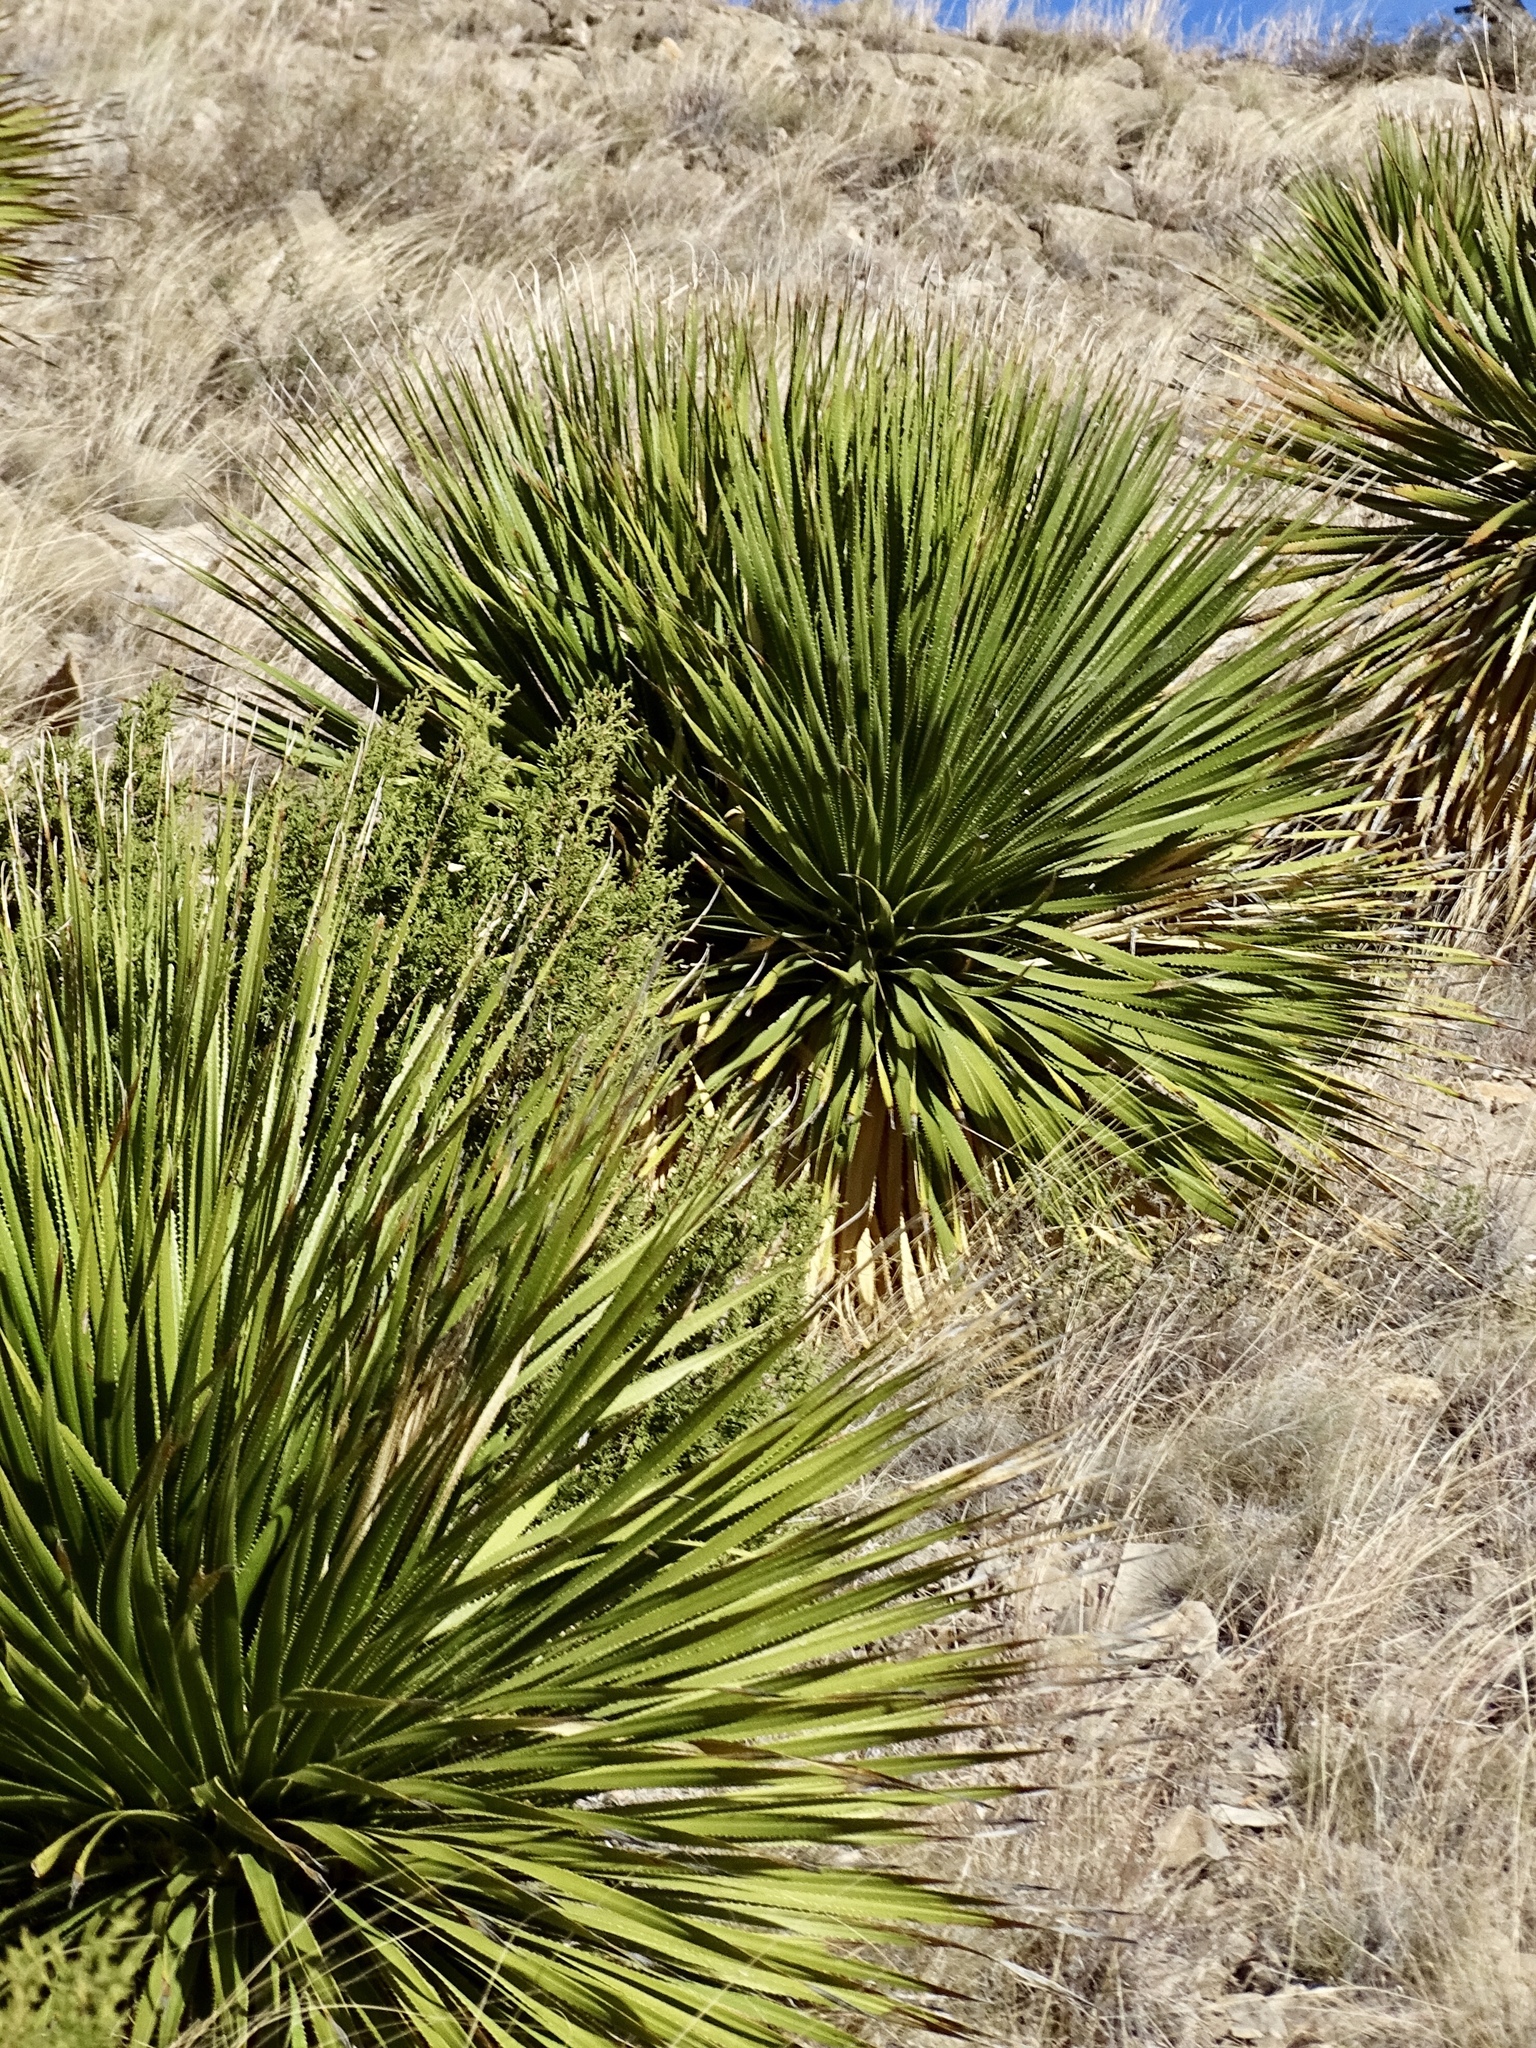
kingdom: Plantae
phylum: Tracheophyta
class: Liliopsida
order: Asparagales
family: Asparagaceae
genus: Dasylirion
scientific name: Dasylirion wheeleri
